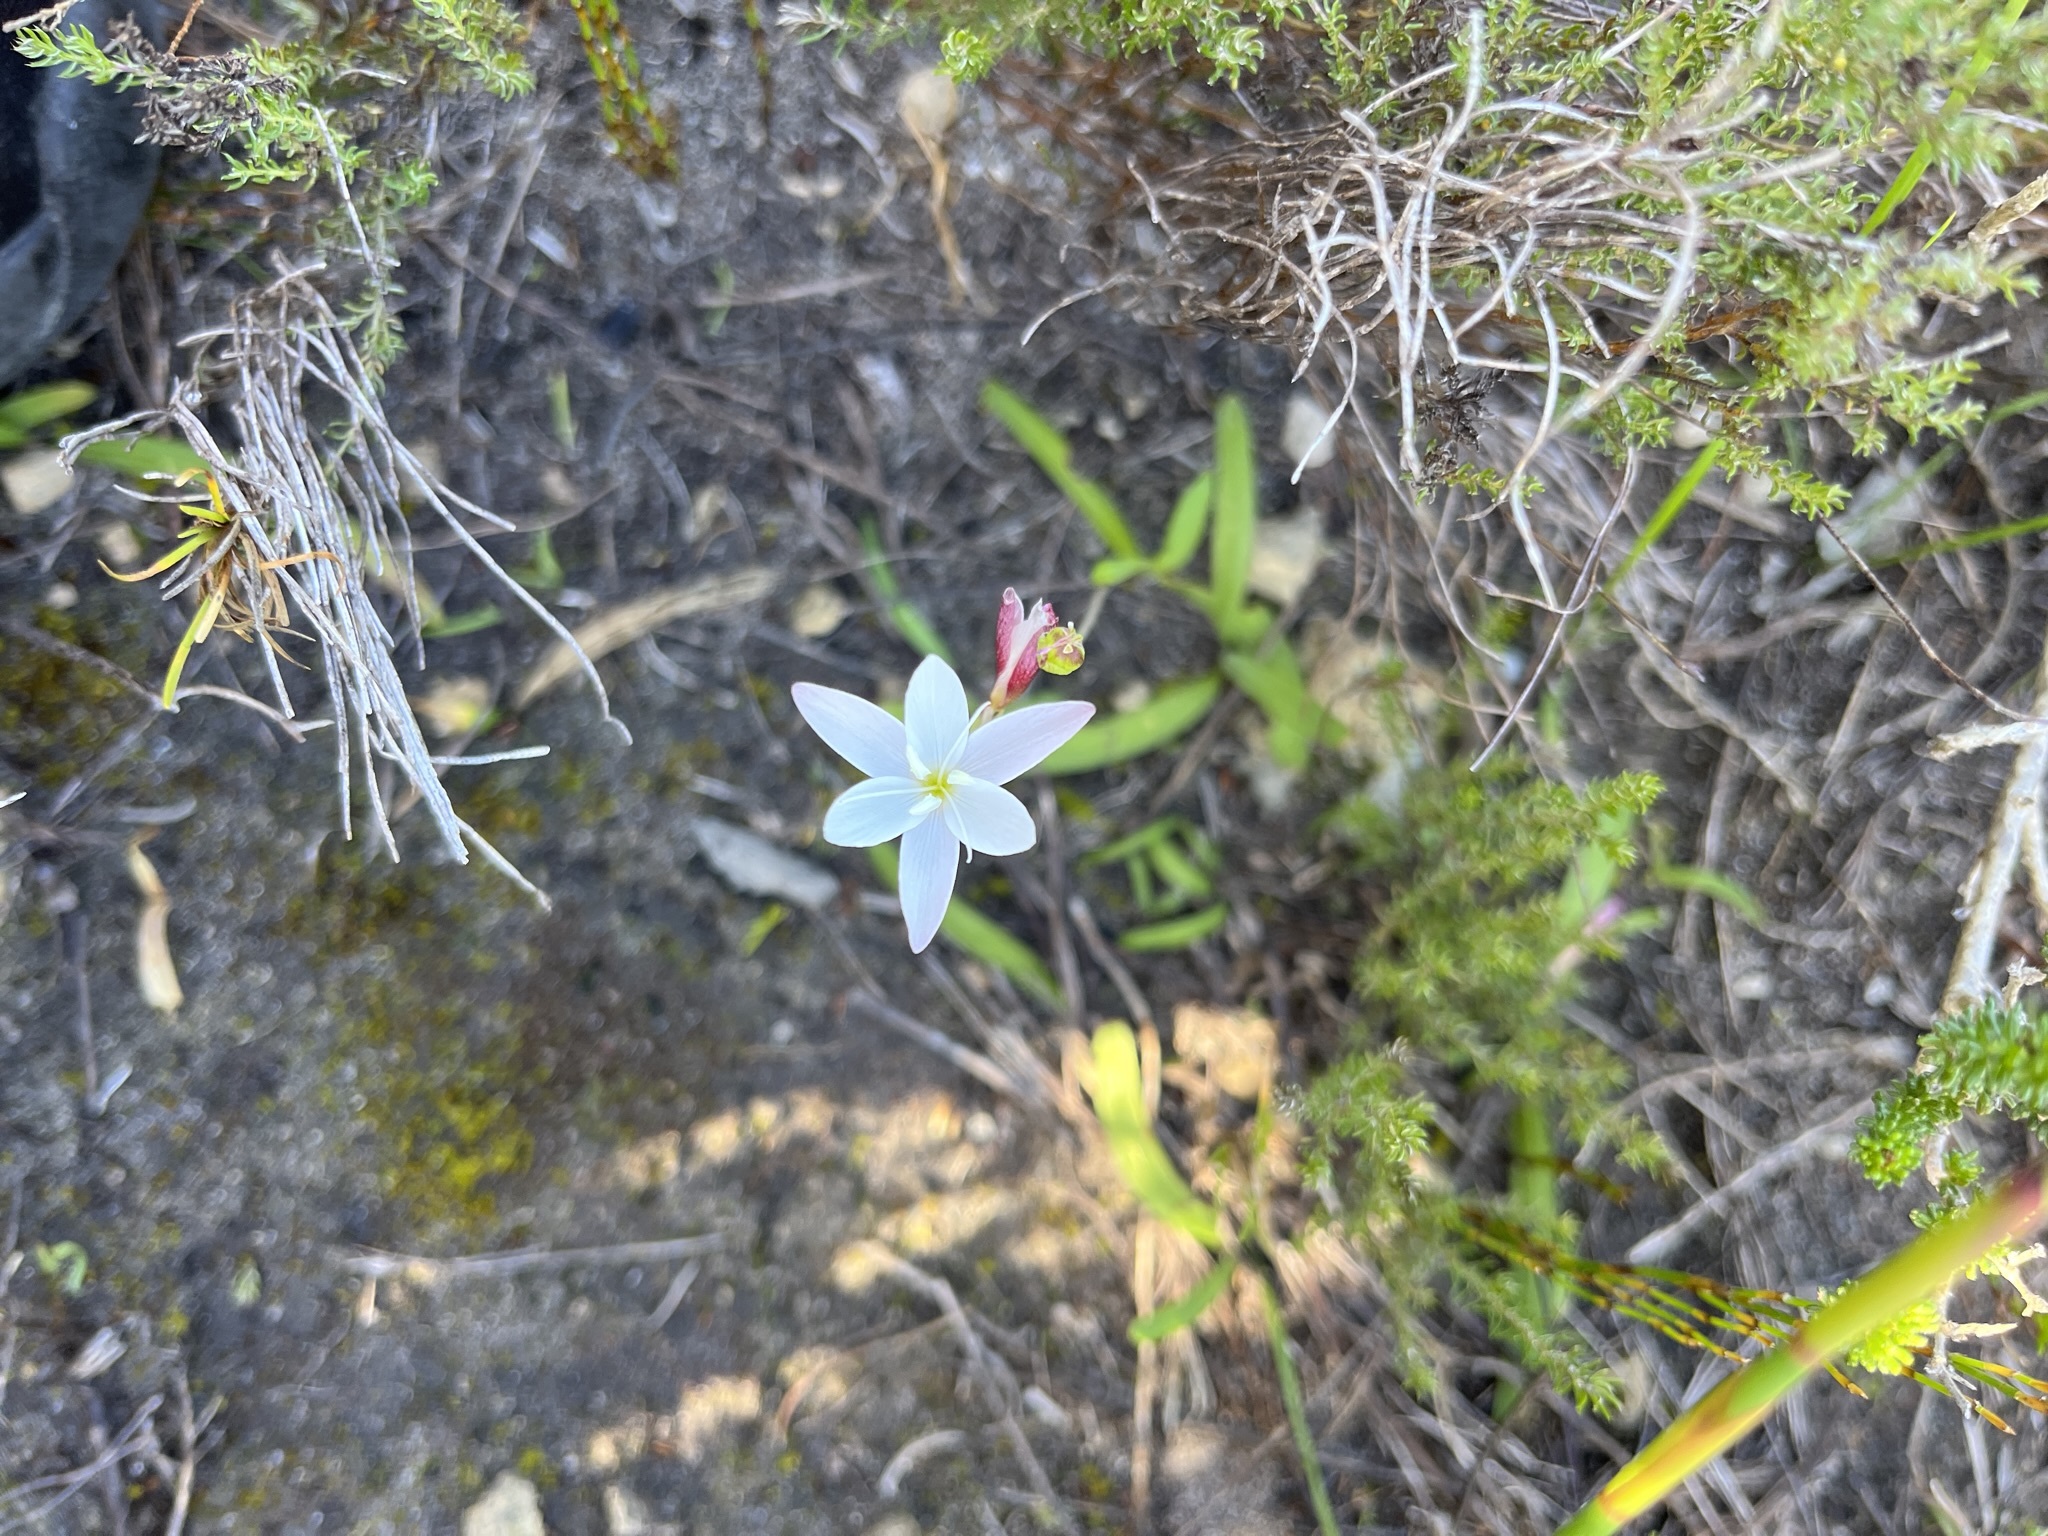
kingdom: Plantae
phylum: Tracheophyta
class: Liliopsida
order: Asparagales
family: Iridaceae
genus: Hesperantha
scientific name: Hesperantha falcata
